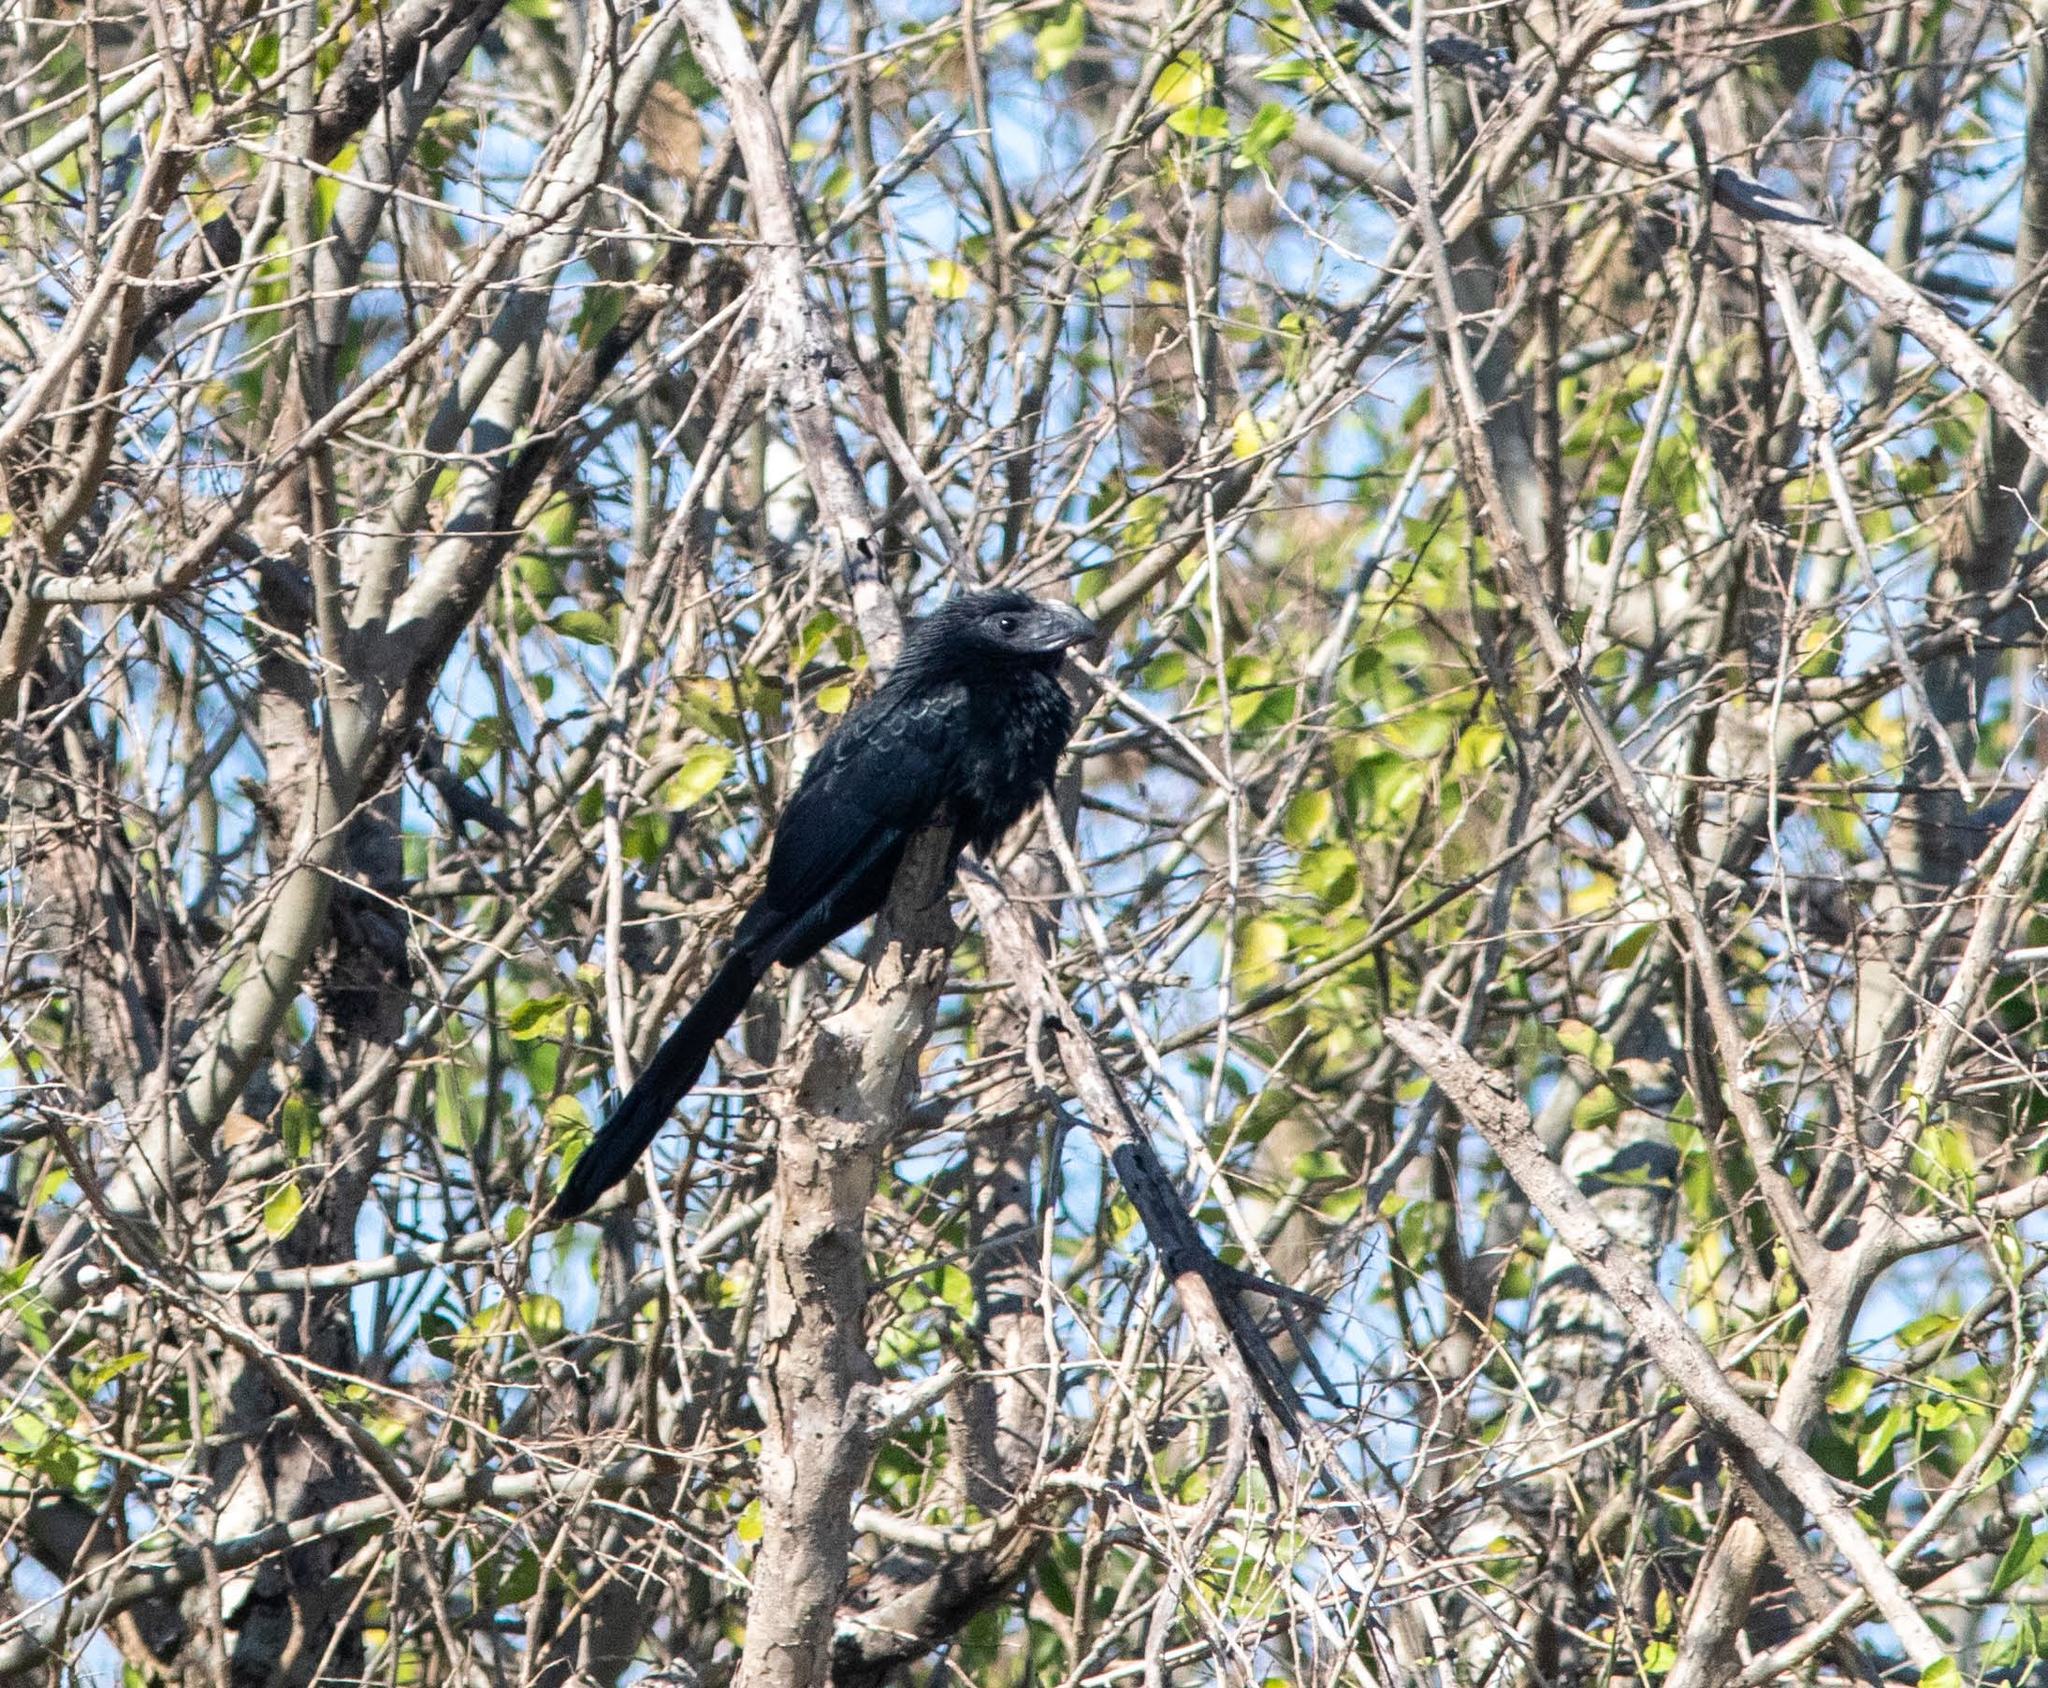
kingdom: Animalia
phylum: Chordata
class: Aves
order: Cuculiformes
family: Cuculidae
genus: Crotophaga
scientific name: Crotophaga sulcirostris
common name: Groove-billed ani
